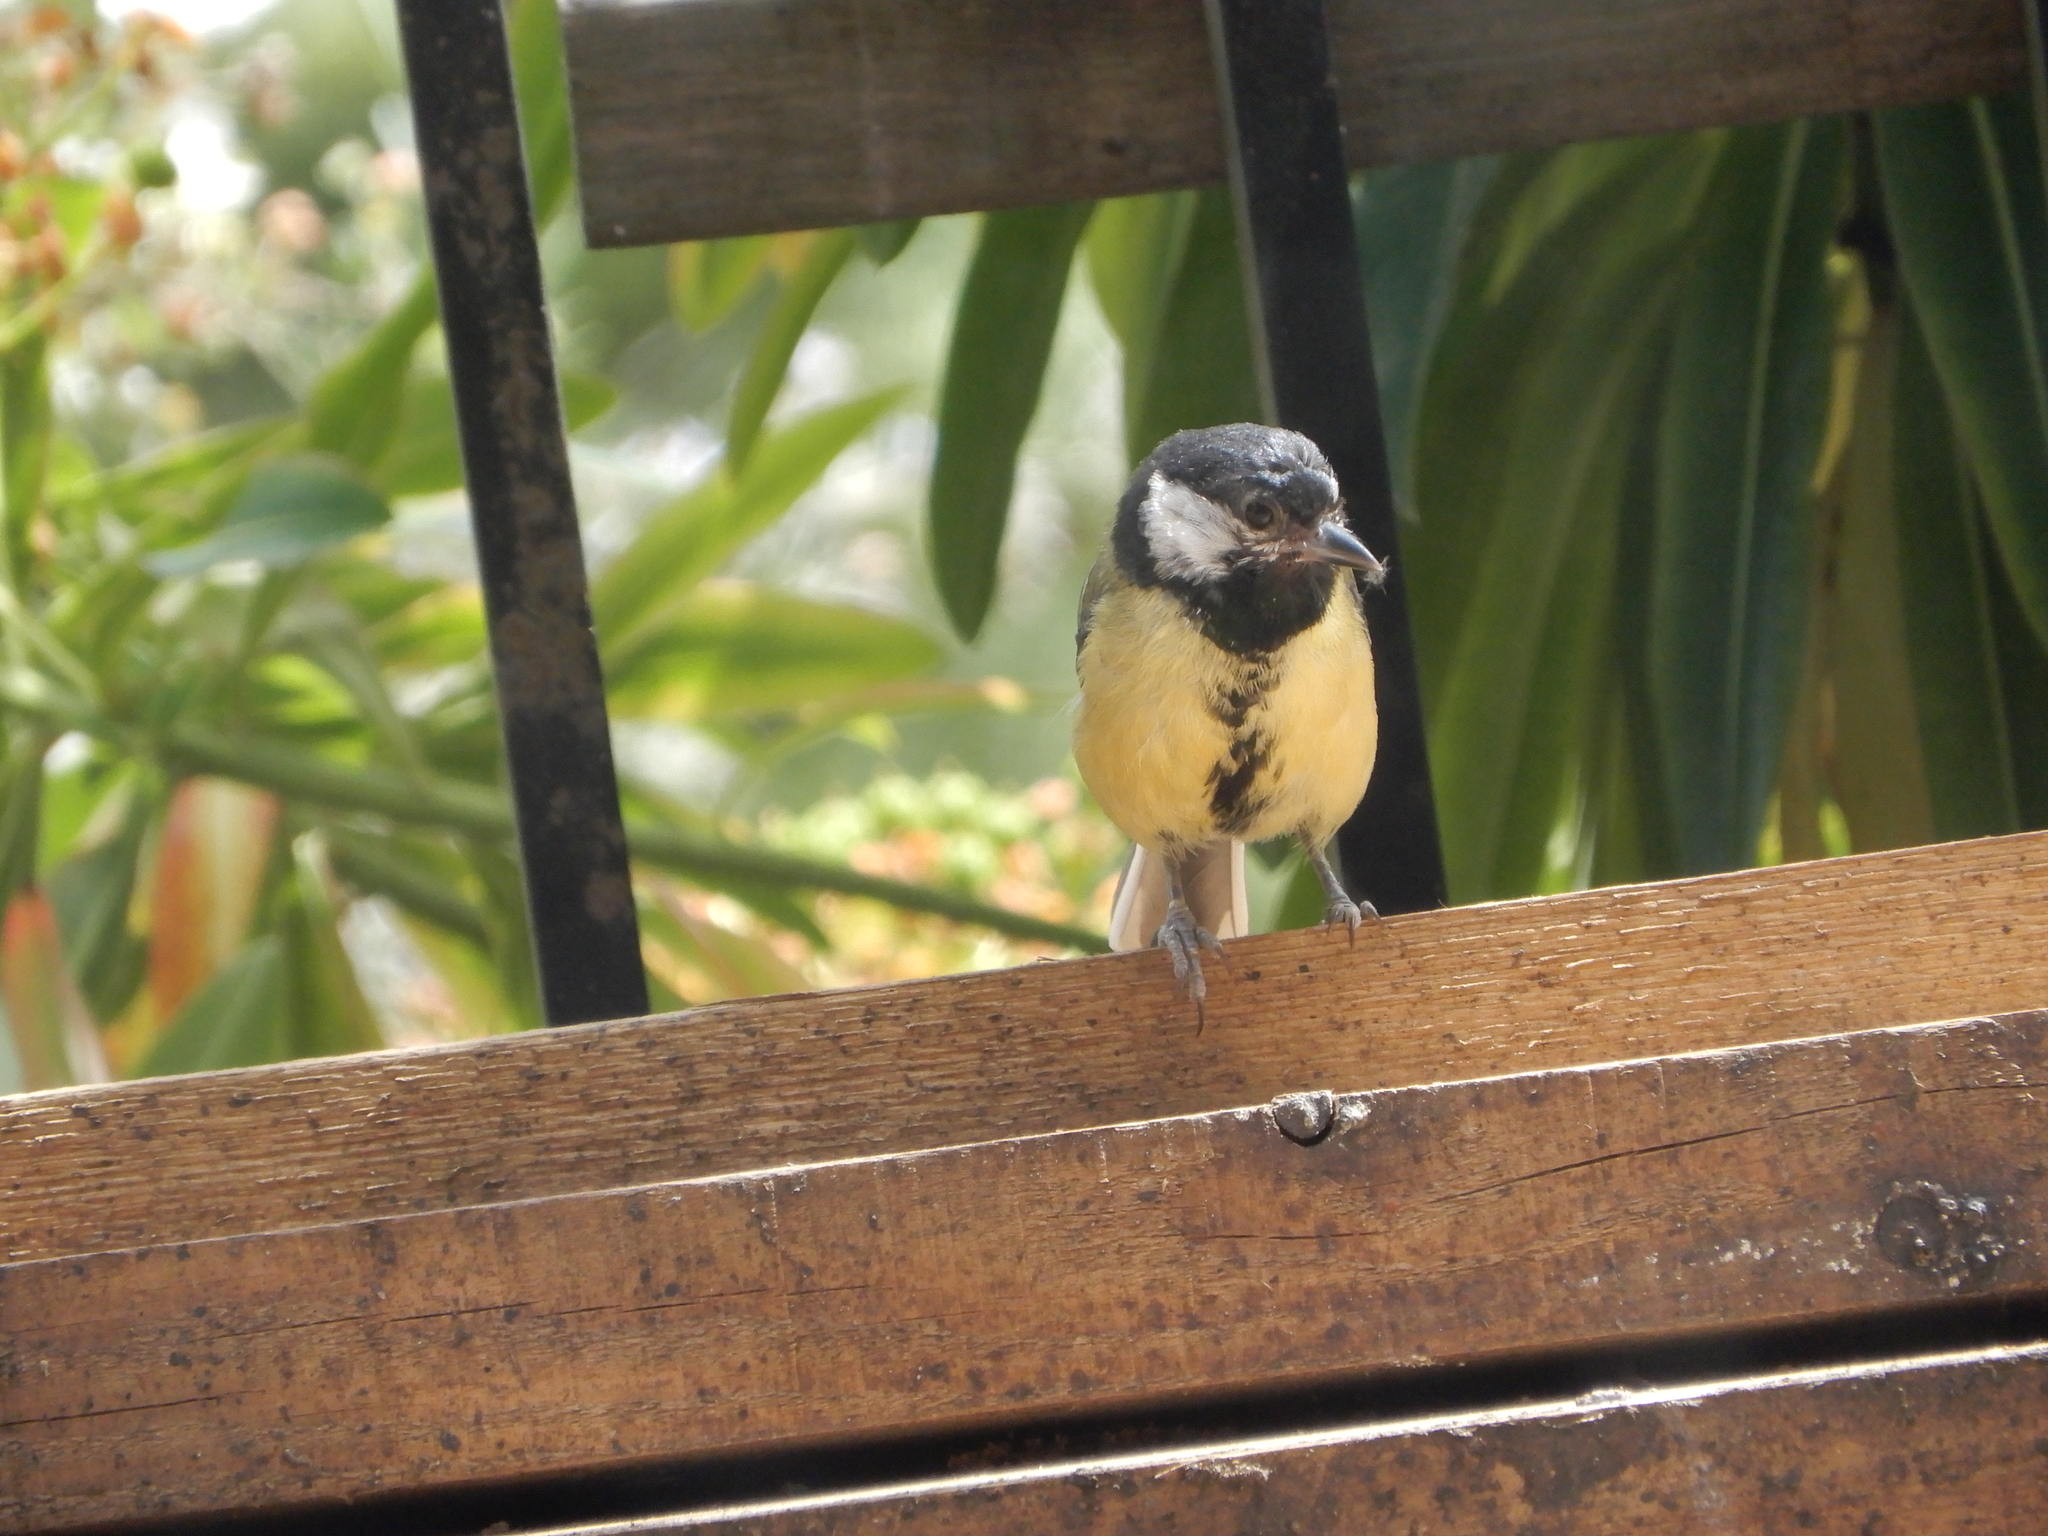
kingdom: Animalia
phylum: Chordata
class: Aves
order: Passeriformes
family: Paridae
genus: Parus
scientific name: Parus major
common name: Great tit
